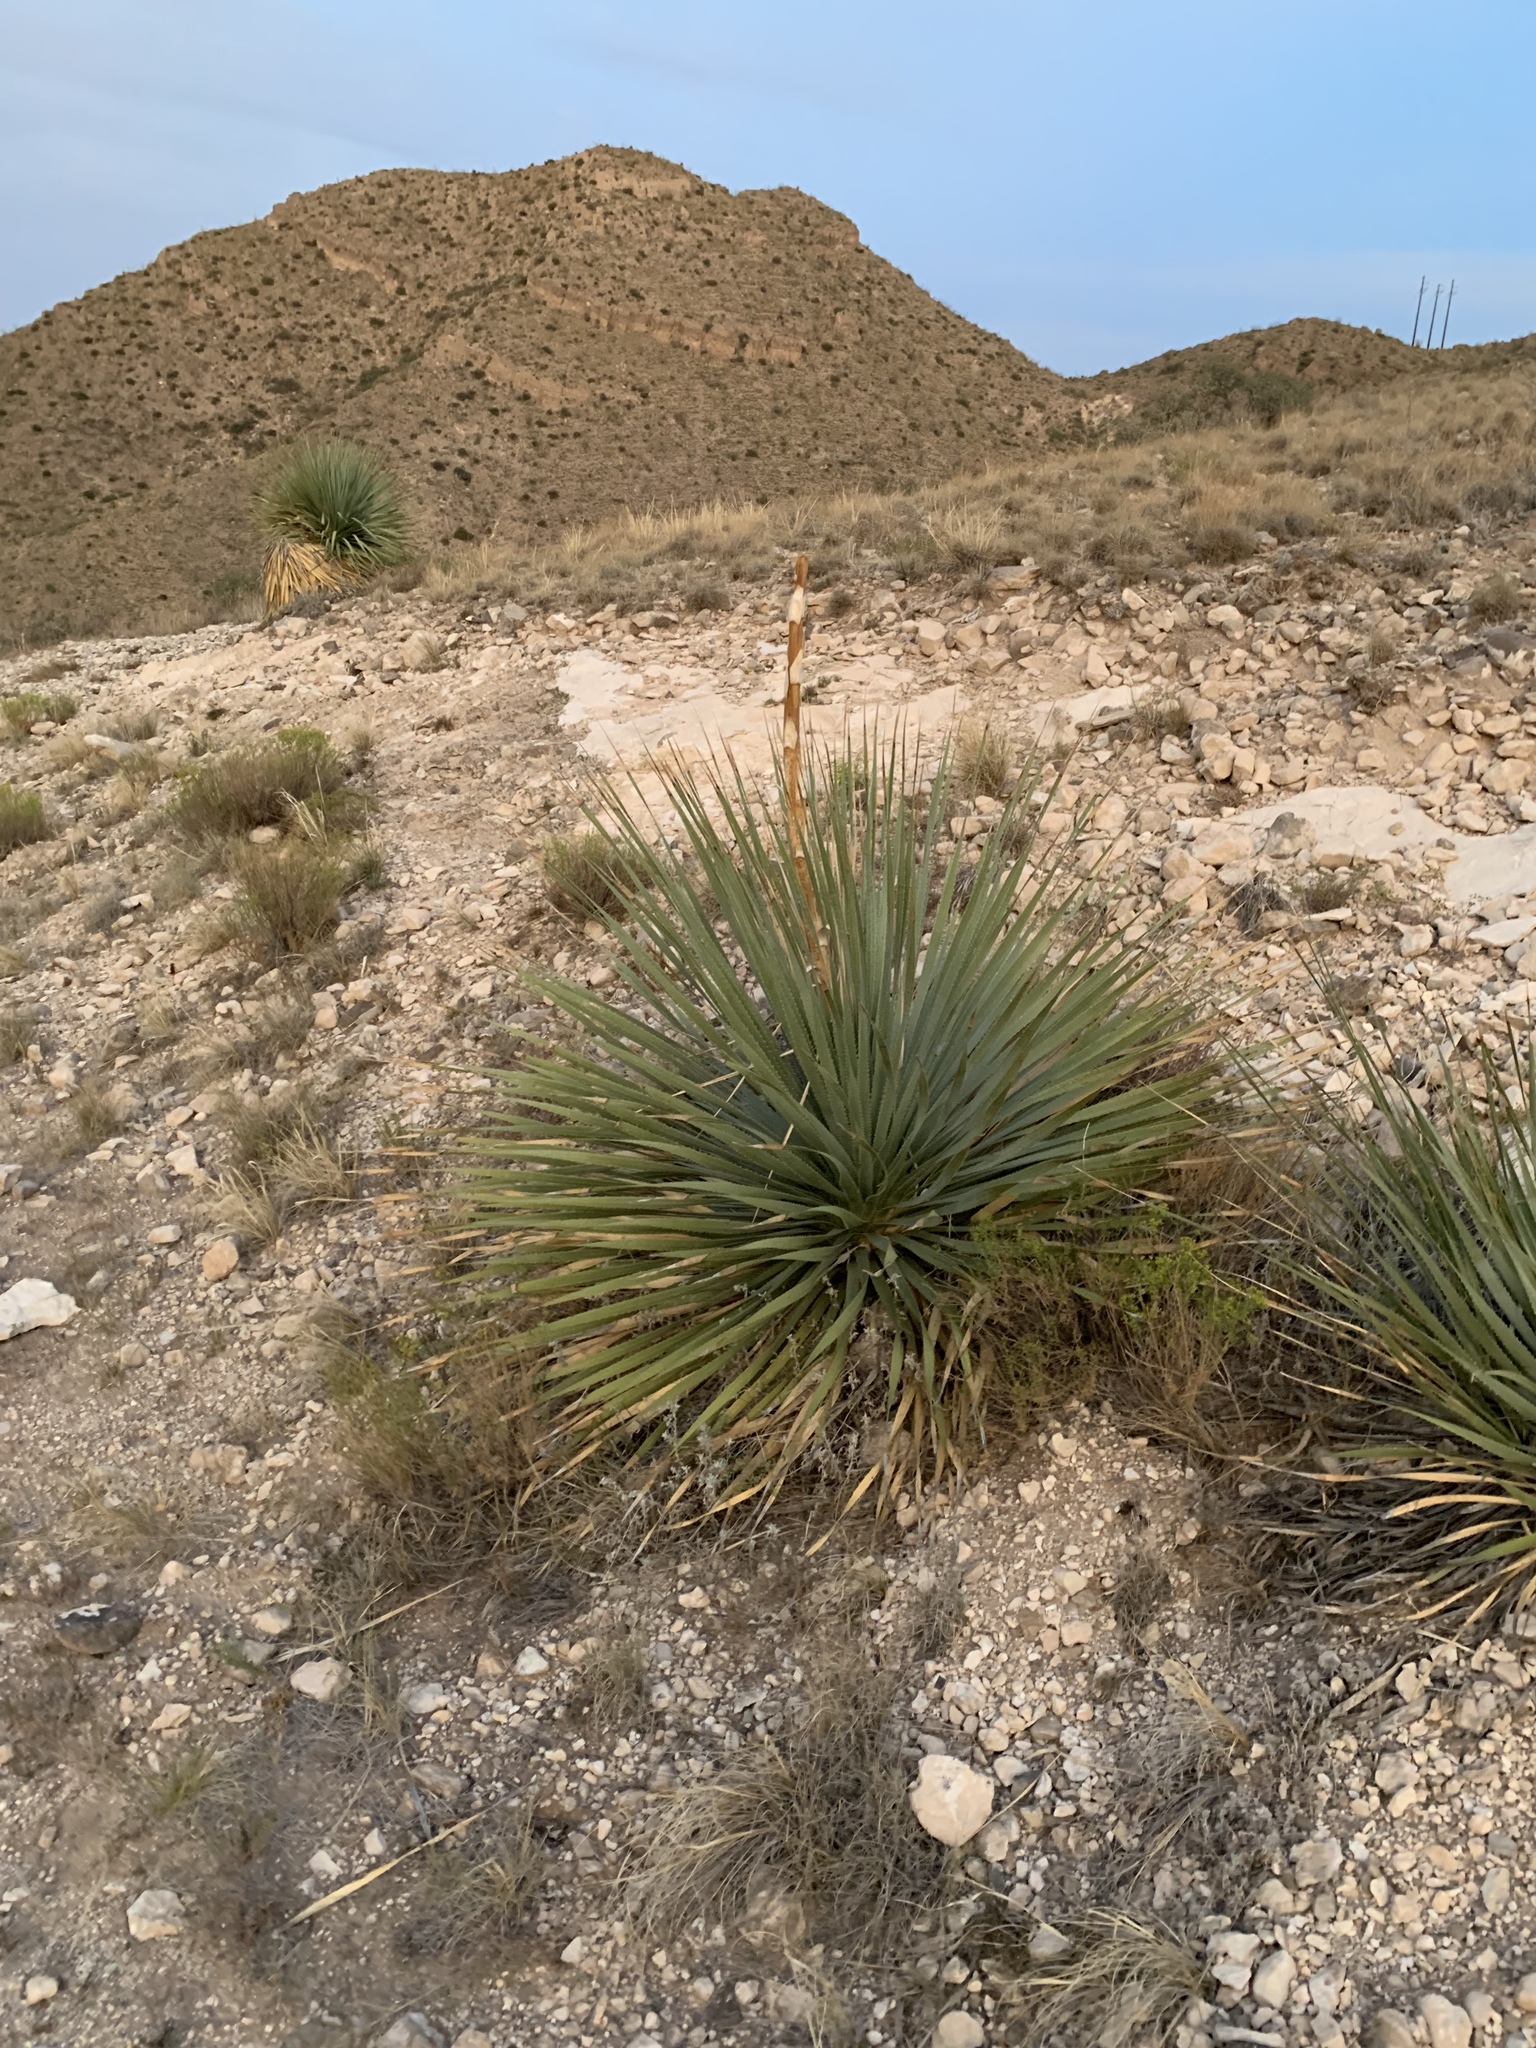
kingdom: Plantae
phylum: Tracheophyta
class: Liliopsida
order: Asparagales
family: Asparagaceae
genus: Dasylirion
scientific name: Dasylirion wheeleri
